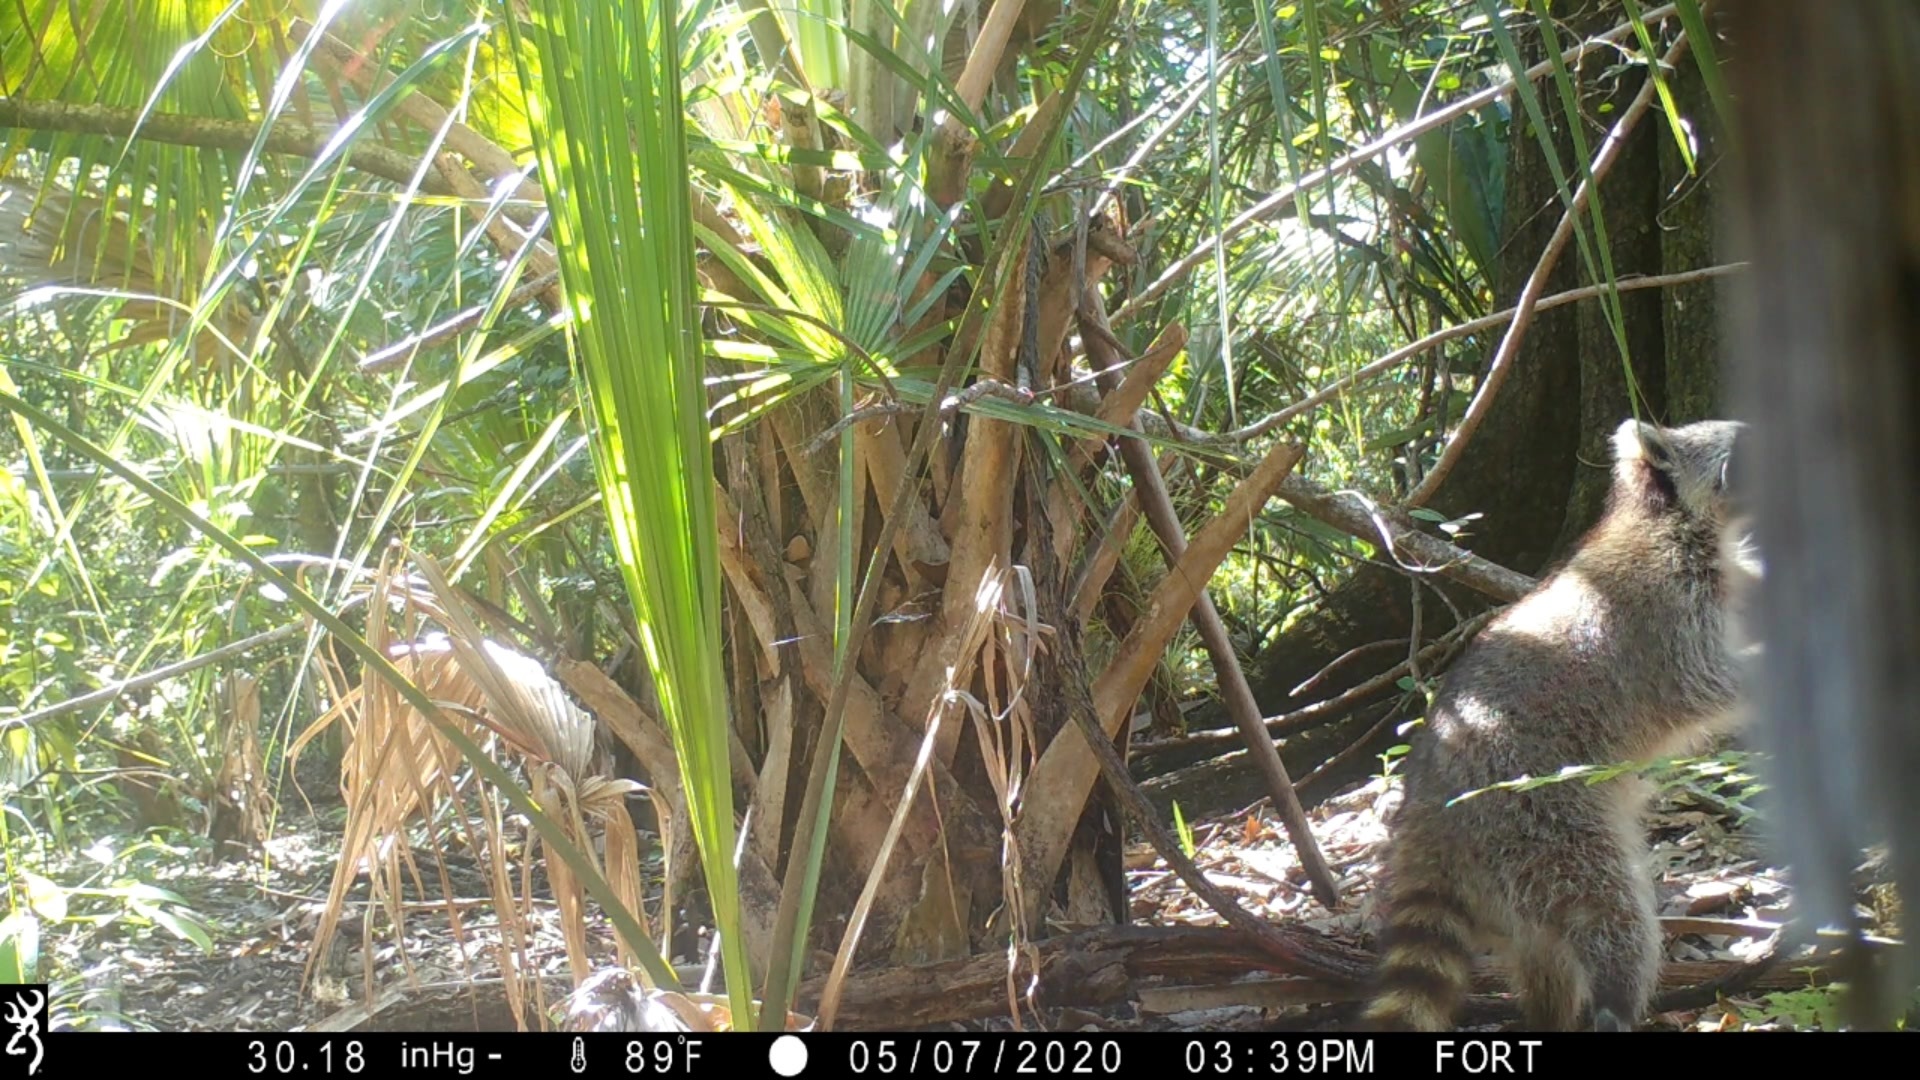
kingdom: Animalia
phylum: Chordata
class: Mammalia
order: Carnivora
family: Procyonidae
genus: Procyon
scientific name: Procyon lotor
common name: Raccoon
